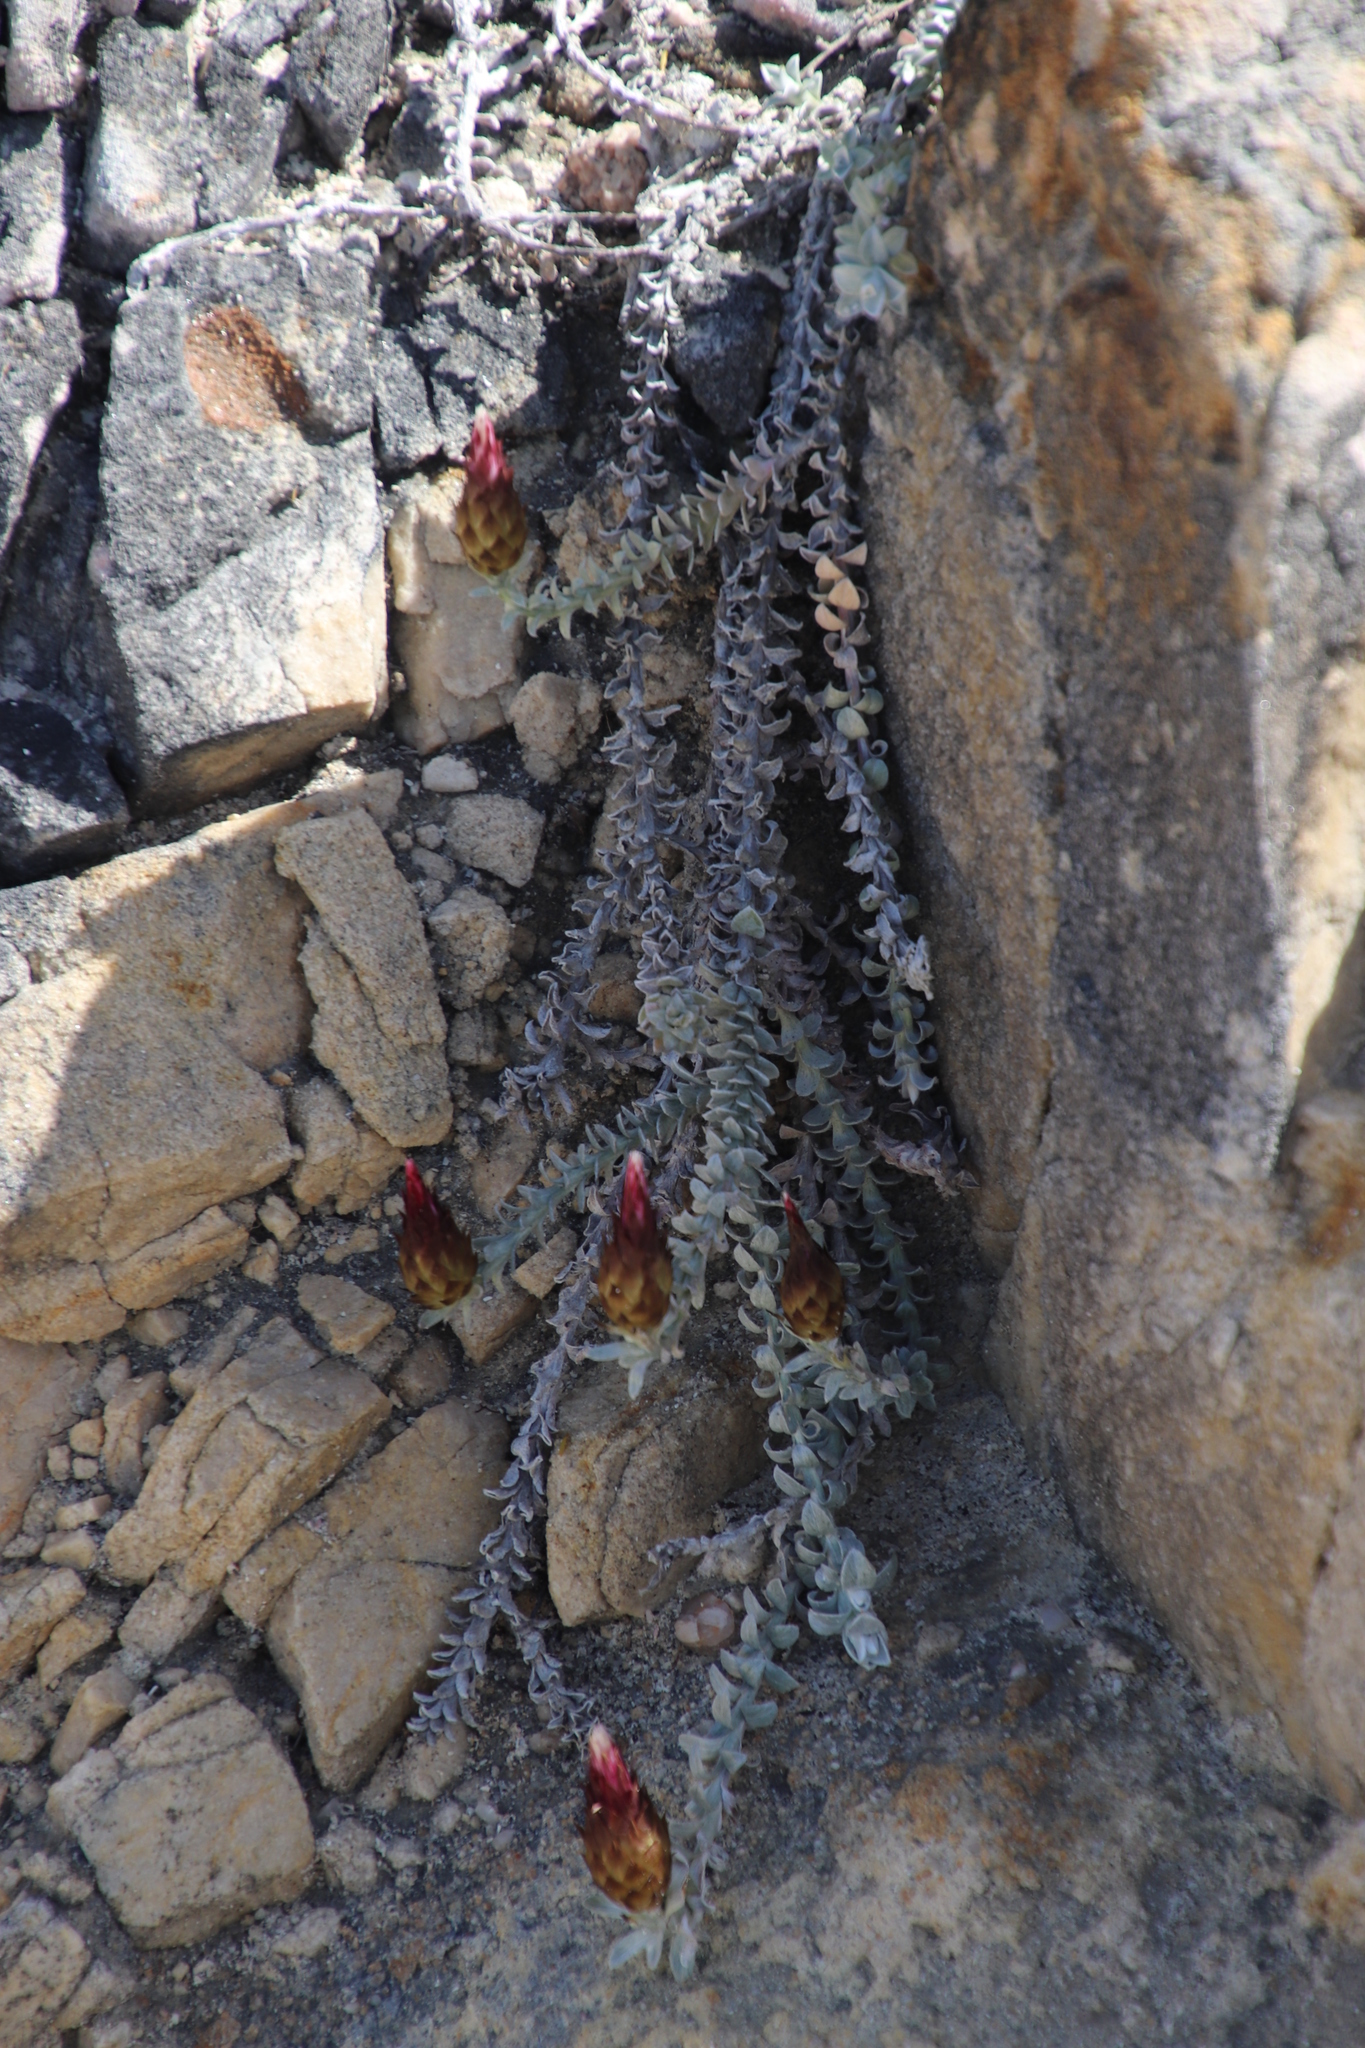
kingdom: Plantae
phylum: Tracheophyta
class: Magnoliopsida
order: Asterales
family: Asteraceae
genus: Helichrysum
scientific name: Helichrysum retortum
